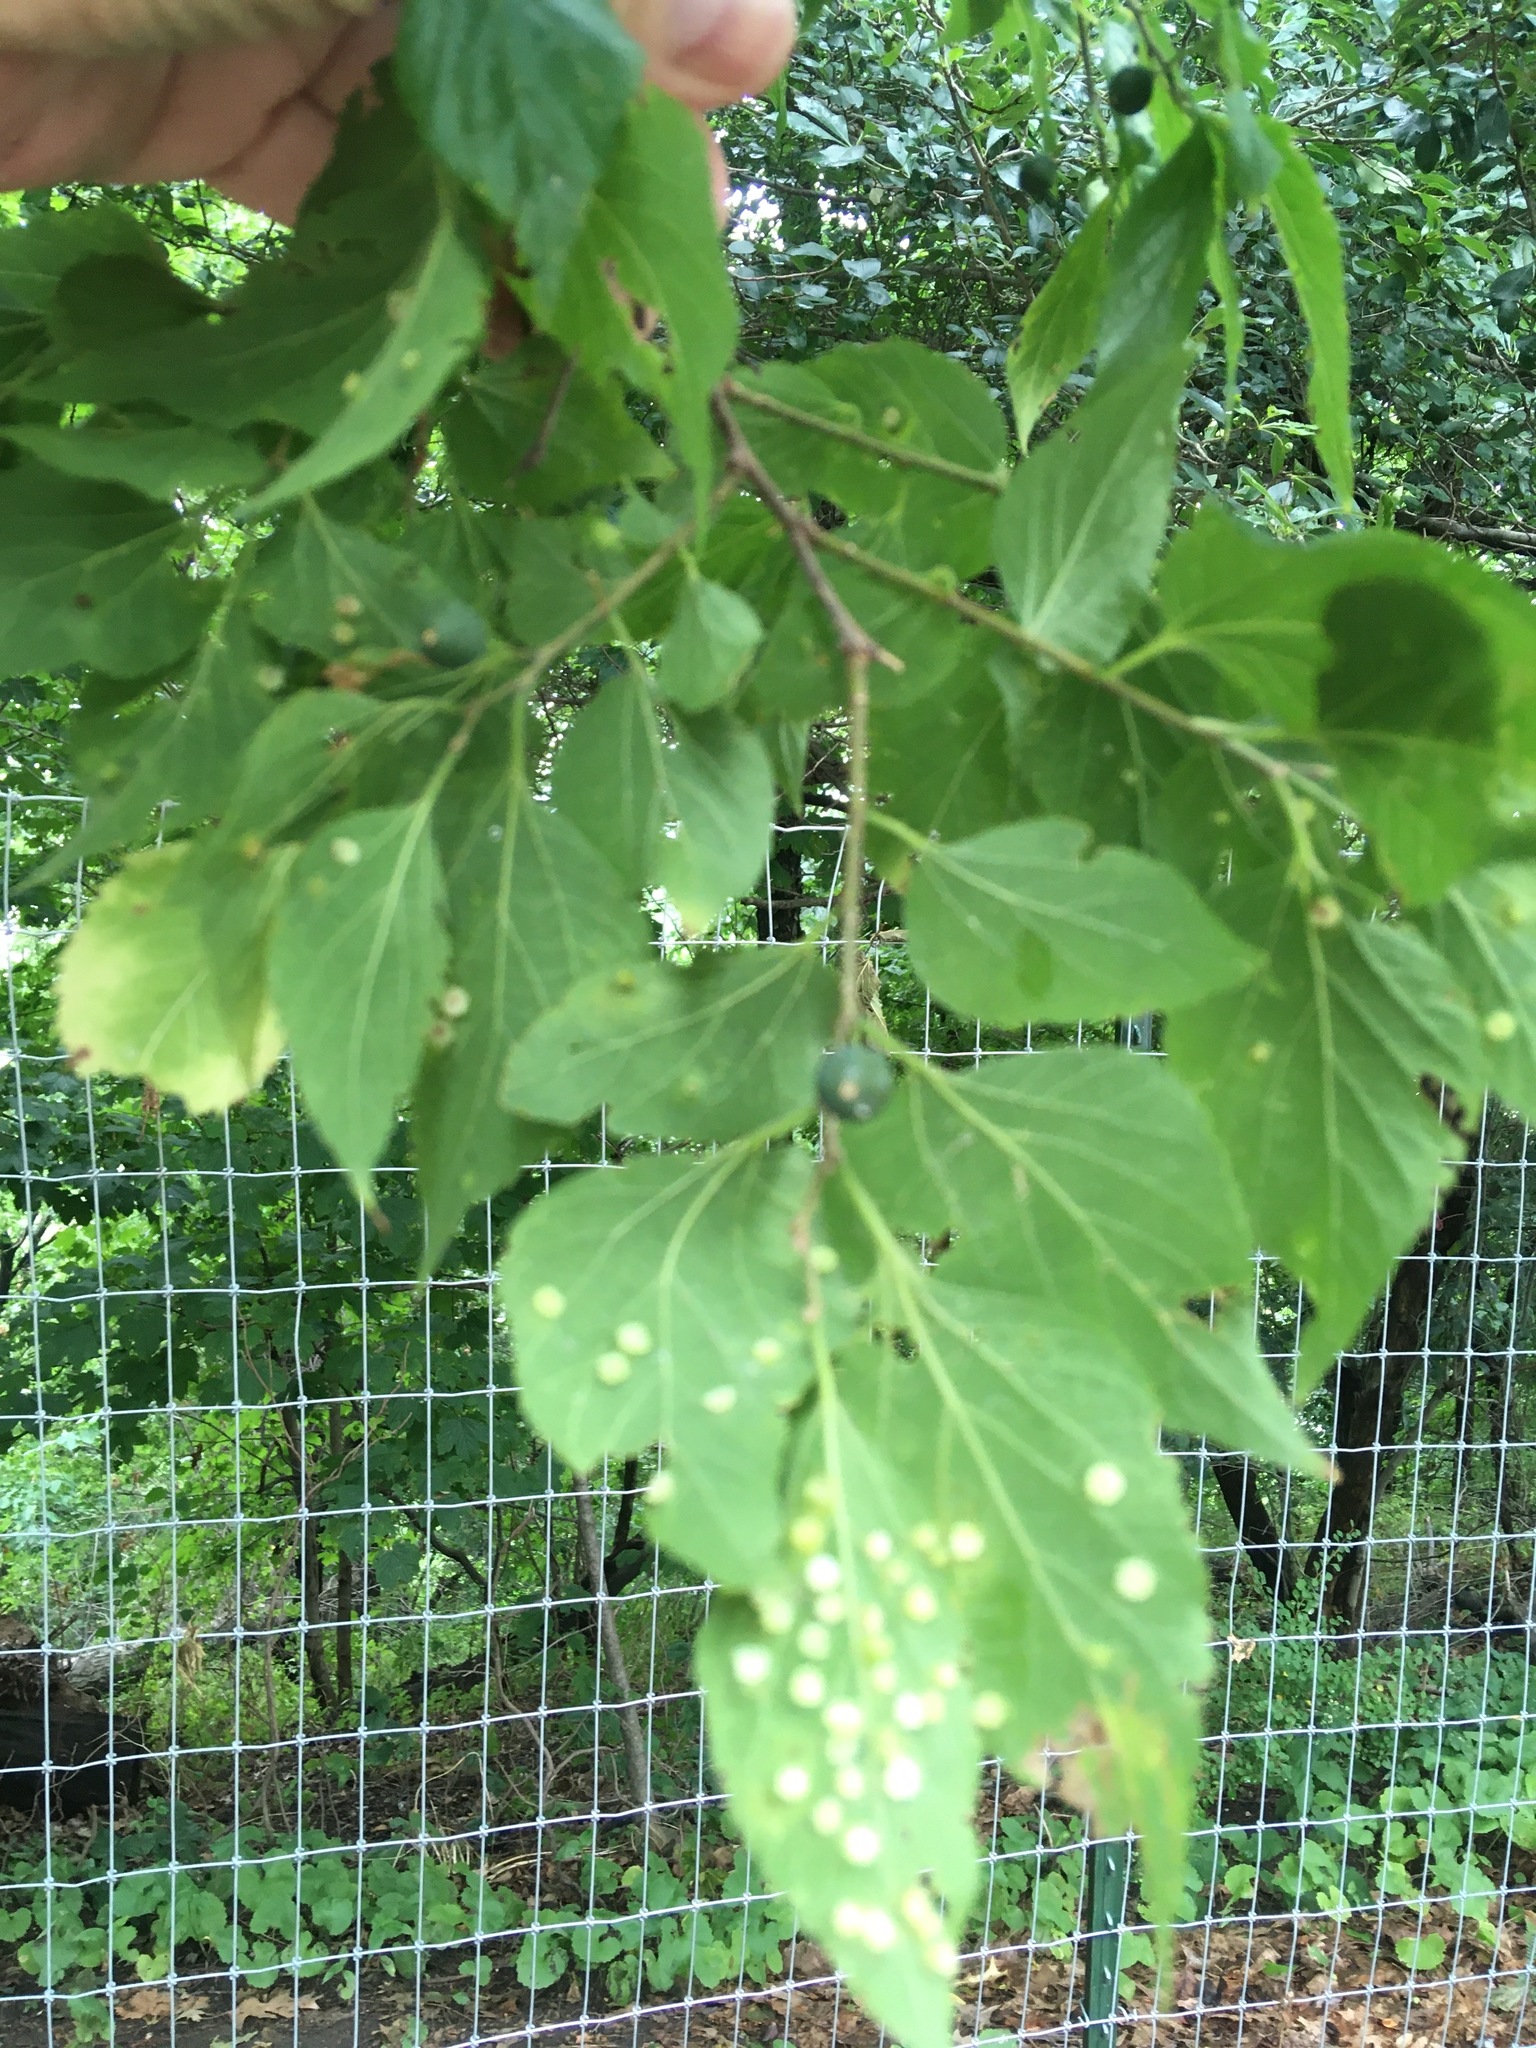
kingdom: Animalia
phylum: Arthropoda
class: Insecta
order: Hemiptera
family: Aphalaridae
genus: Pachypsylla
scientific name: Pachypsylla celtidismamma
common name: Hackberry nipplegall psyllid
